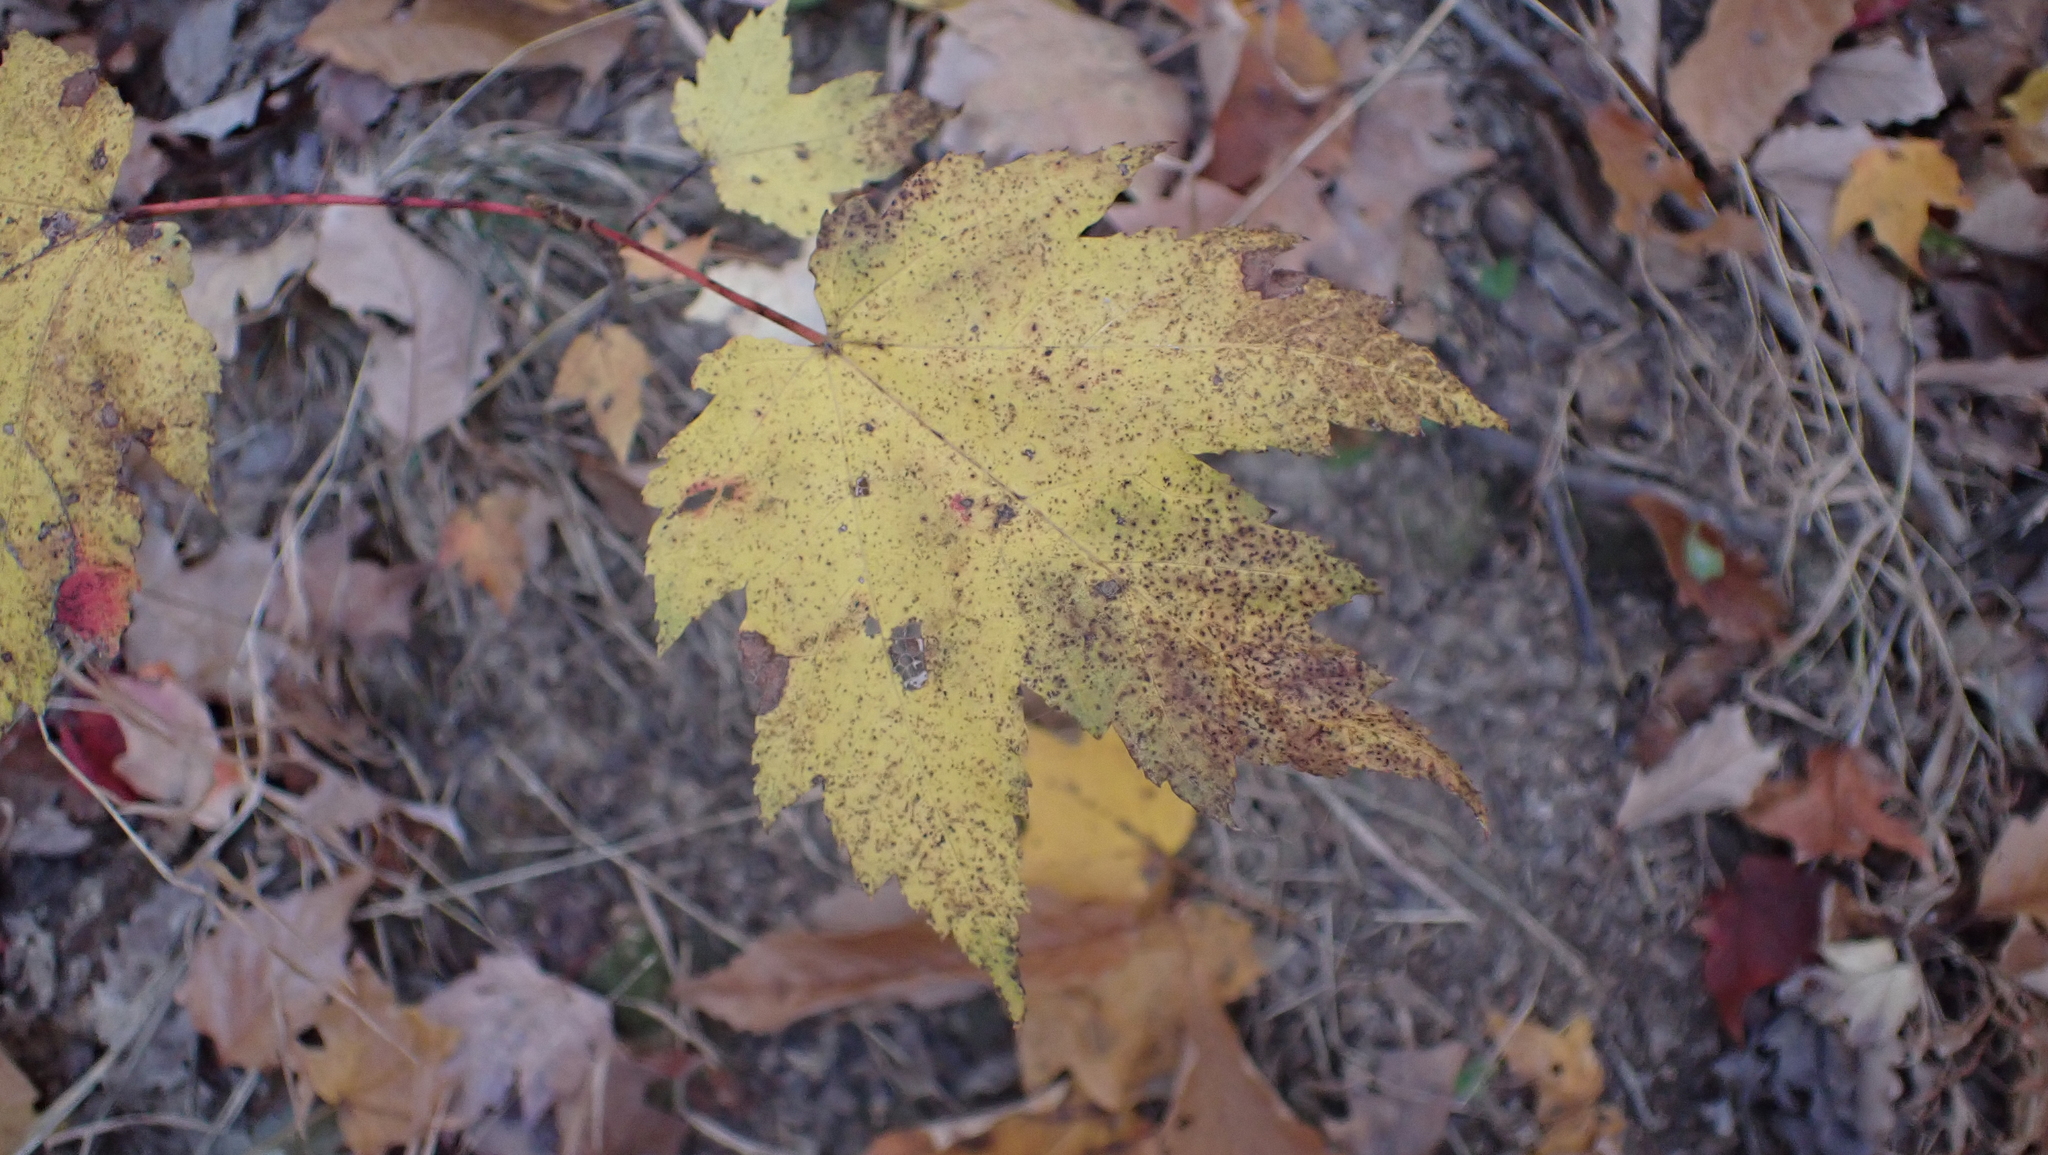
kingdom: Plantae
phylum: Tracheophyta
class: Magnoliopsida
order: Sapindales
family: Sapindaceae
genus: Acer
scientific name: Acer rubrum
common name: Red maple
